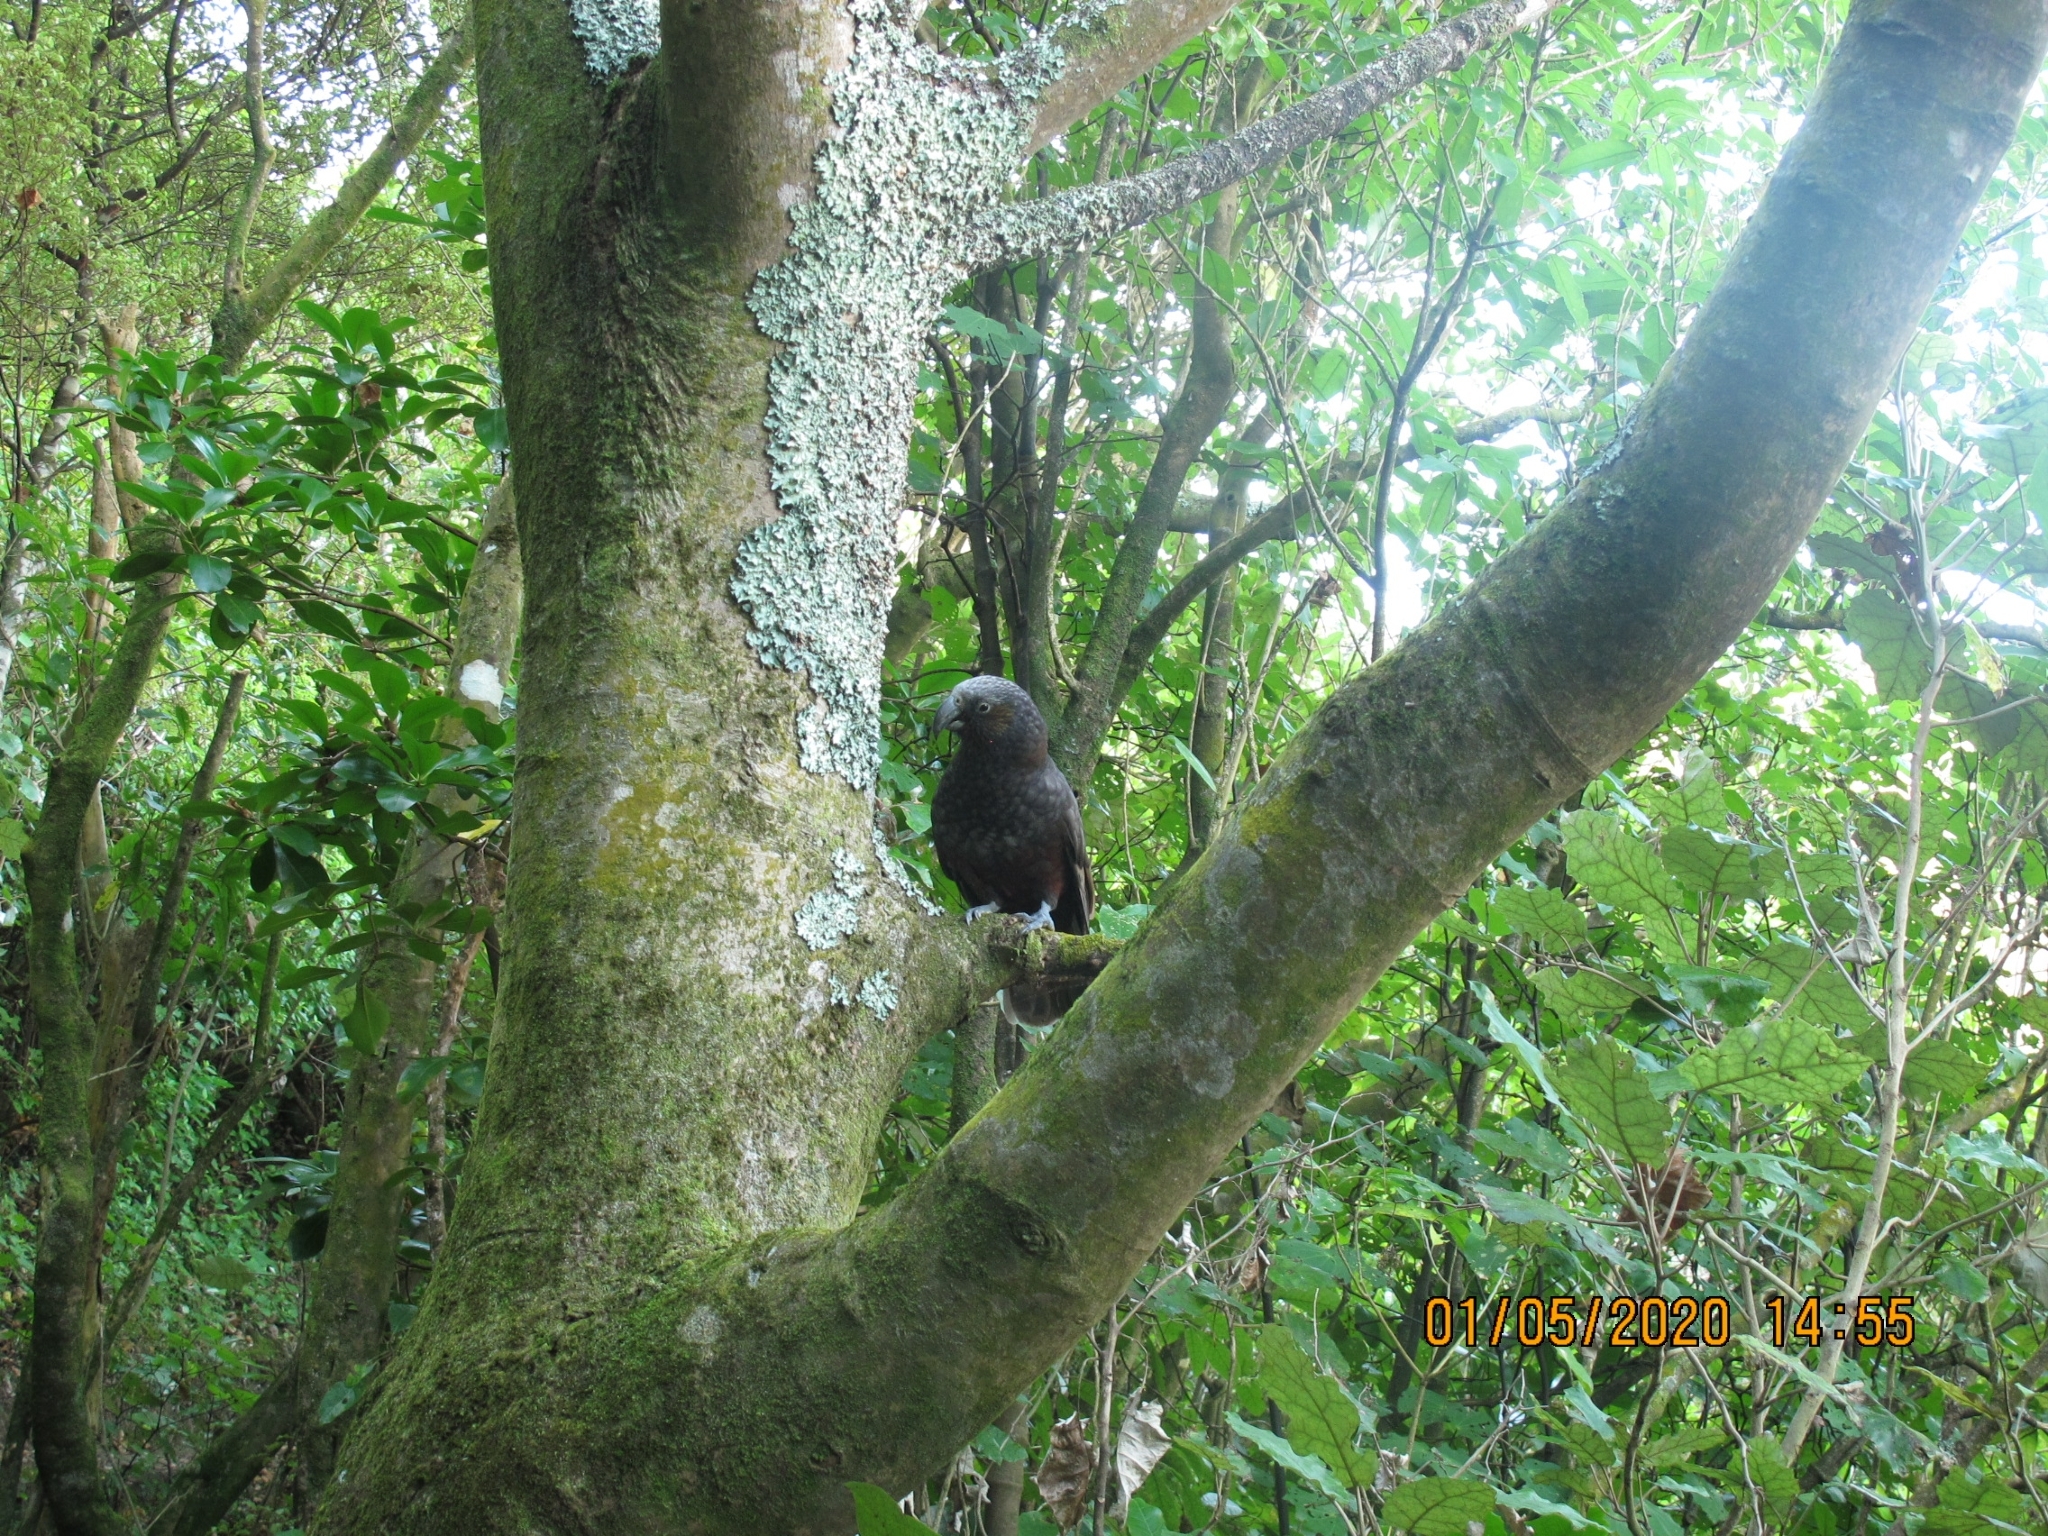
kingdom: Animalia
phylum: Chordata
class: Aves
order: Psittaciformes
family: Psittacidae
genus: Nestor
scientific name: Nestor meridionalis
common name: New zealand kaka
